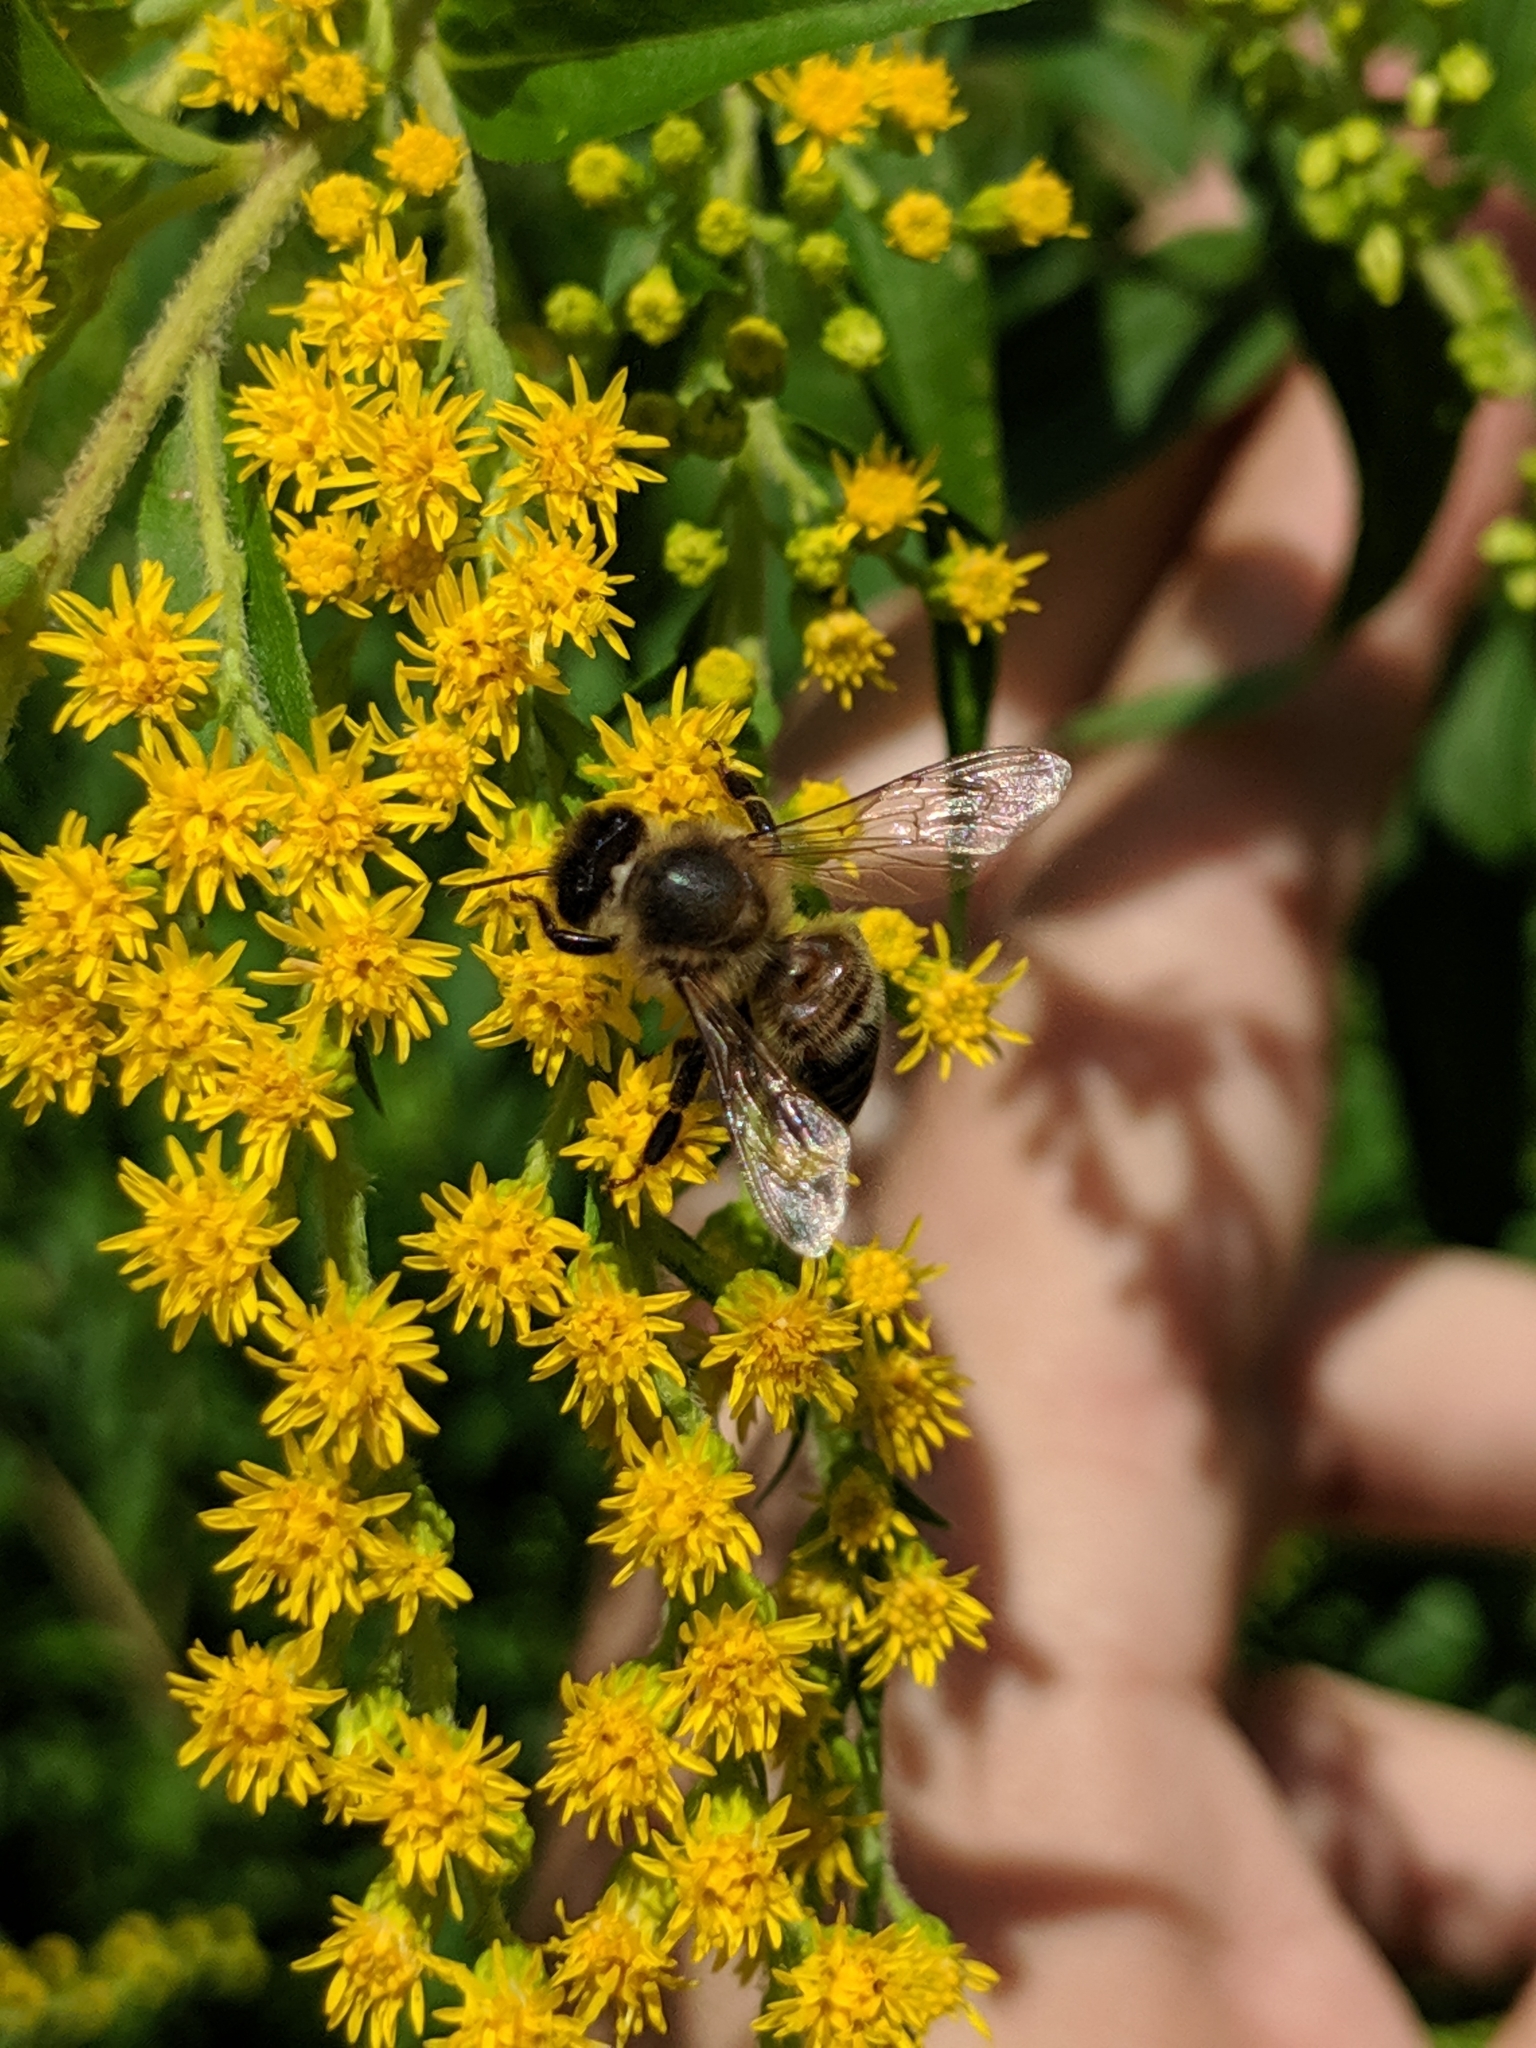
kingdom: Animalia
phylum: Arthropoda
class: Insecta
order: Hymenoptera
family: Apidae
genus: Apis
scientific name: Apis mellifera
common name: Honey bee
